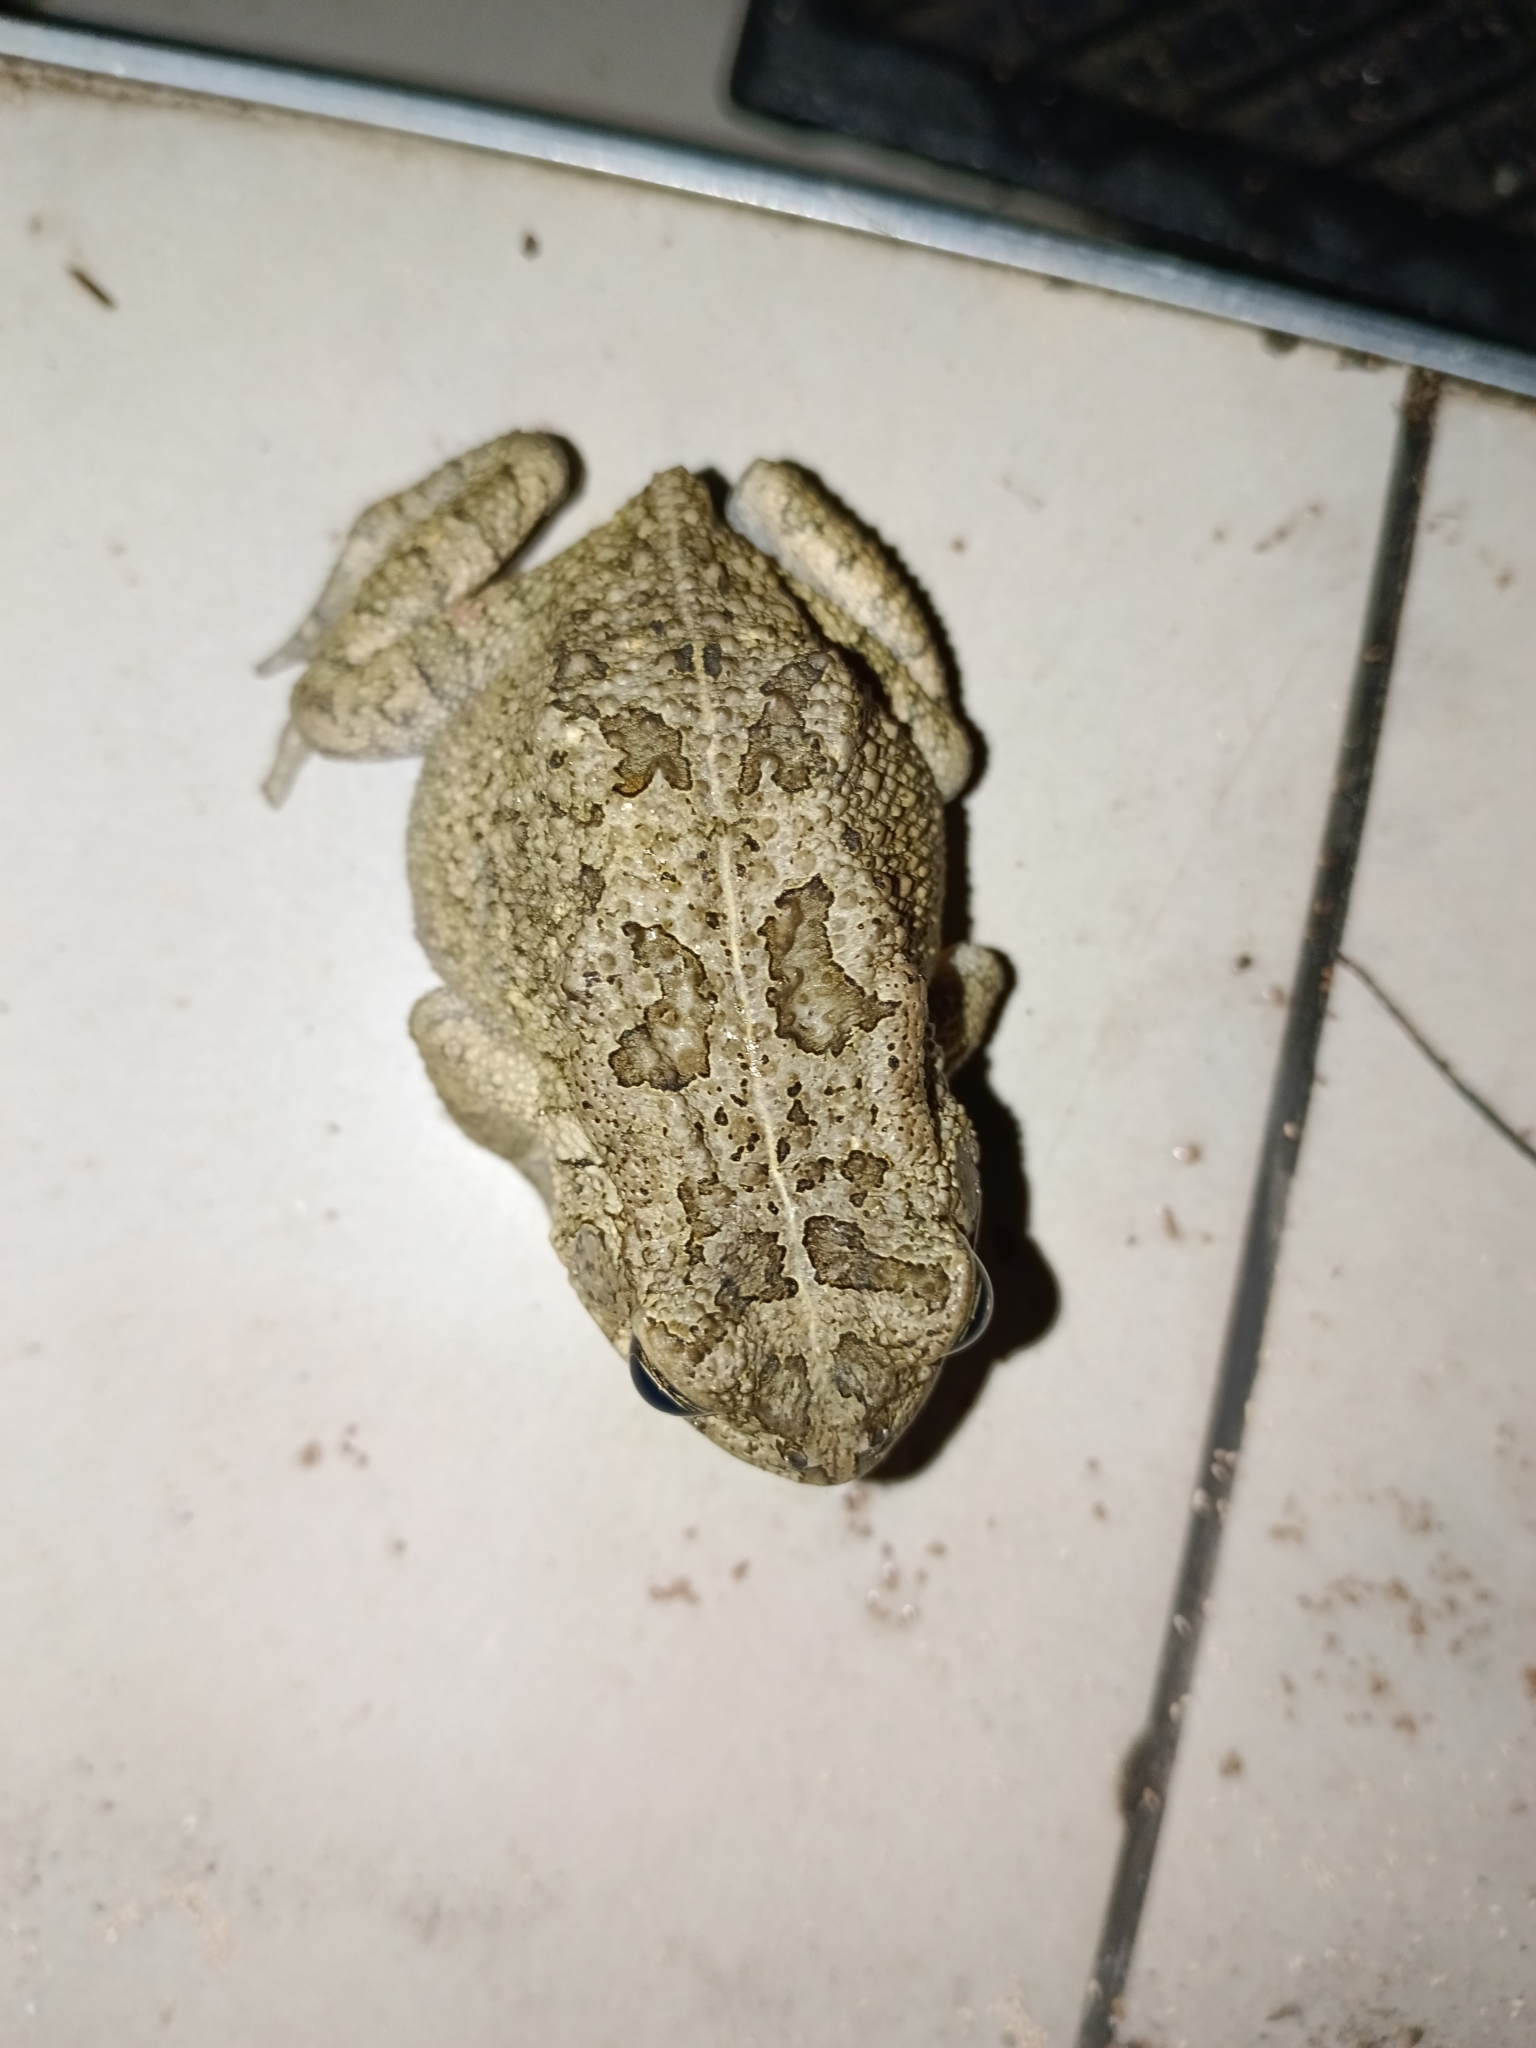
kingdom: Animalia
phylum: Chordata
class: Amphibia
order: Anura
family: Bufonidae
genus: Sclerophrys
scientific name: Sclerophrys gutturalis
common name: African common toad
